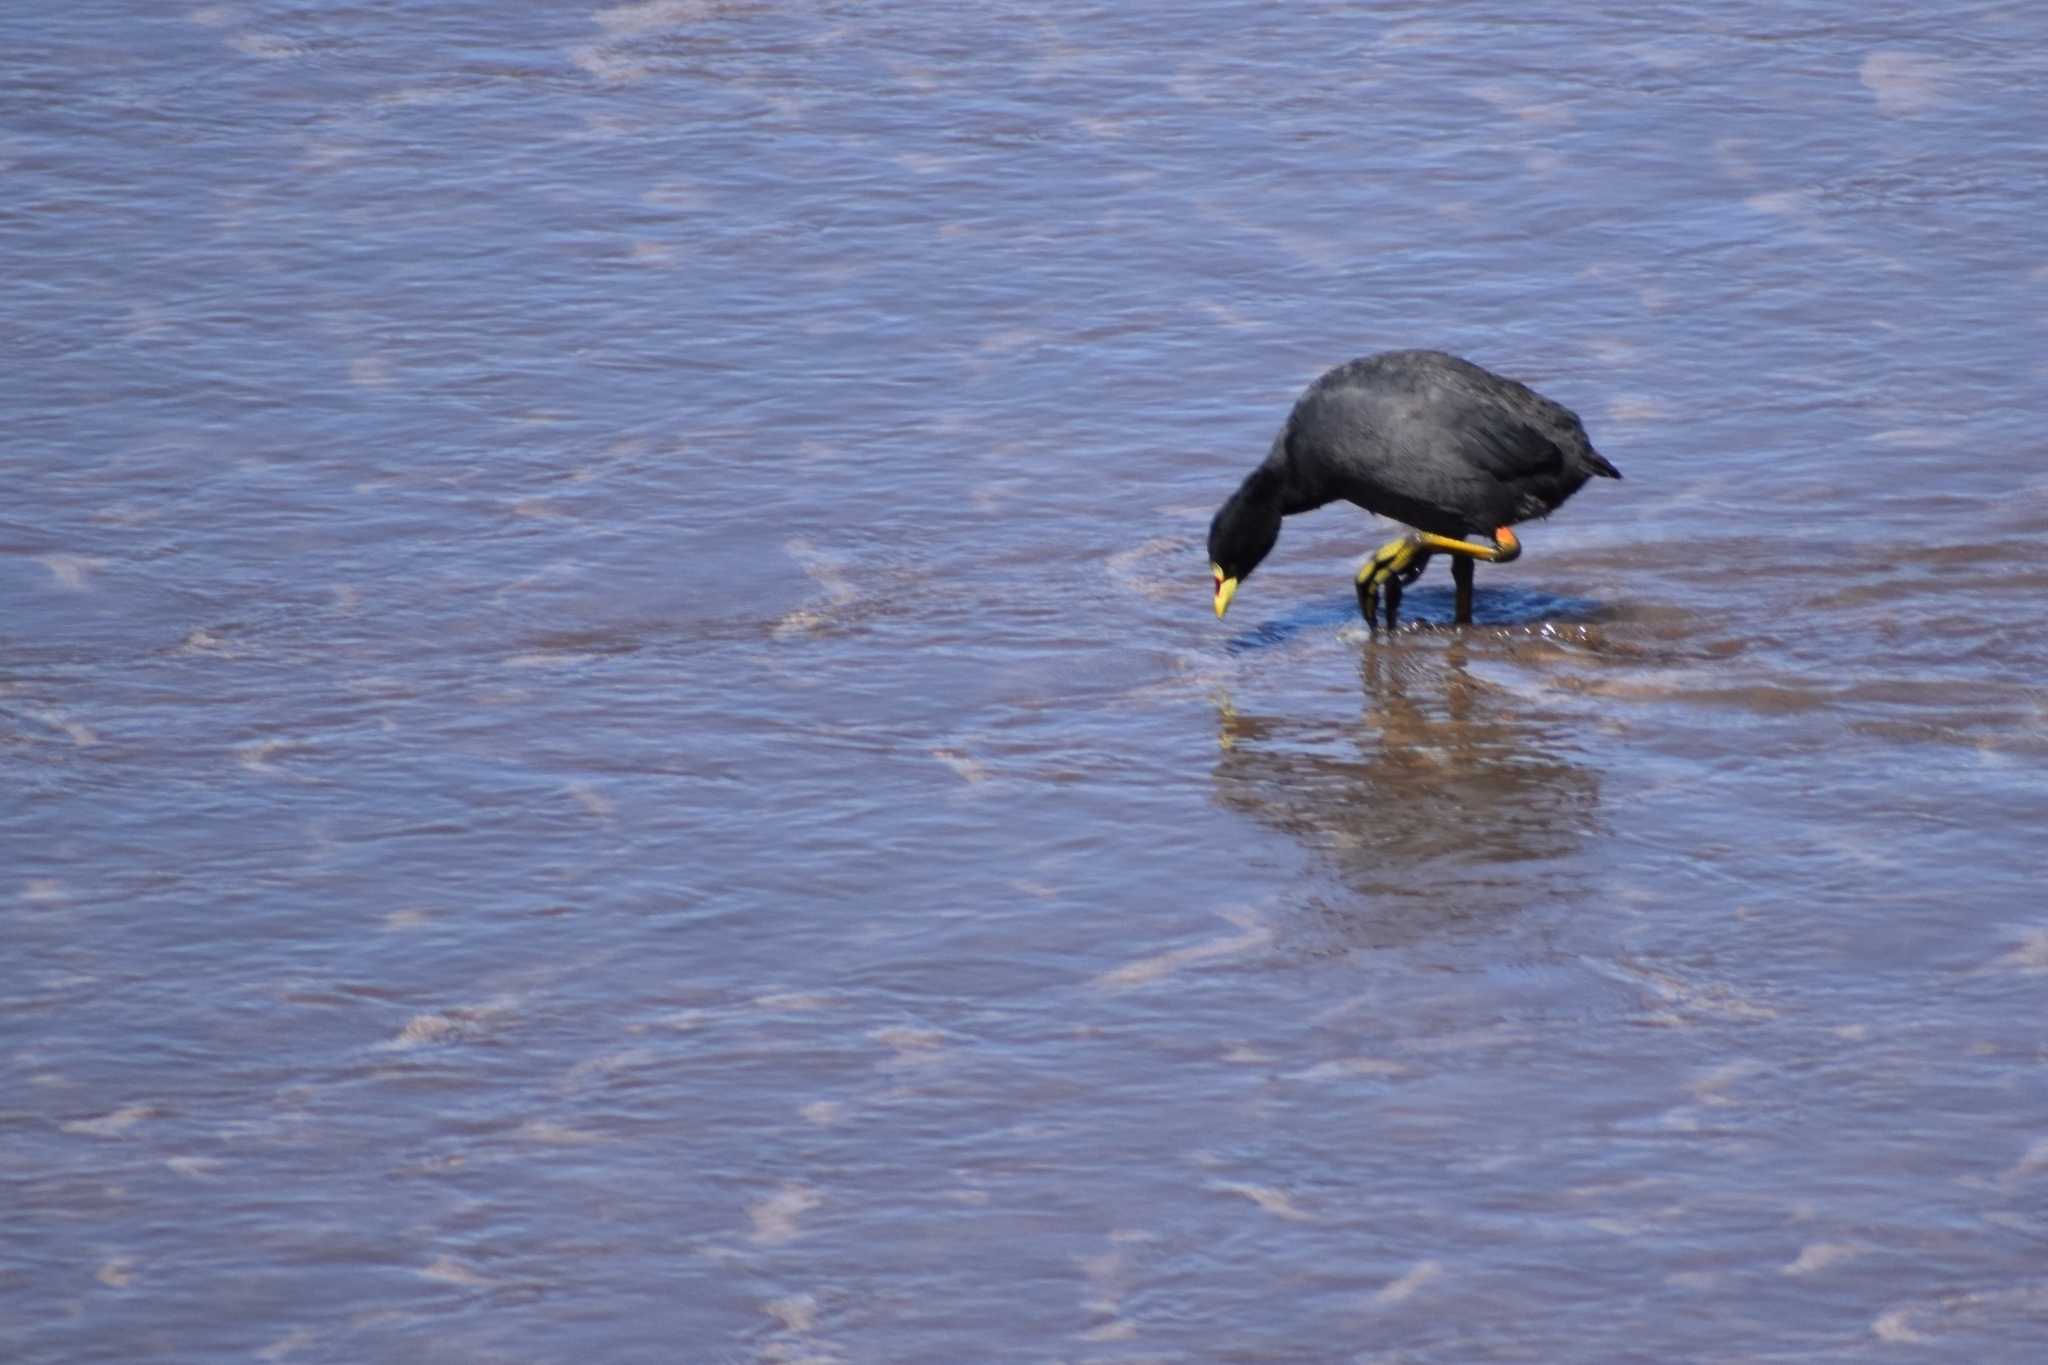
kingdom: Animalia
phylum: Chordata
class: Aves
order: Gruiformes
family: Rallidae
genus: Fulica
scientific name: Fulica armillata
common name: Red-gartered coot
